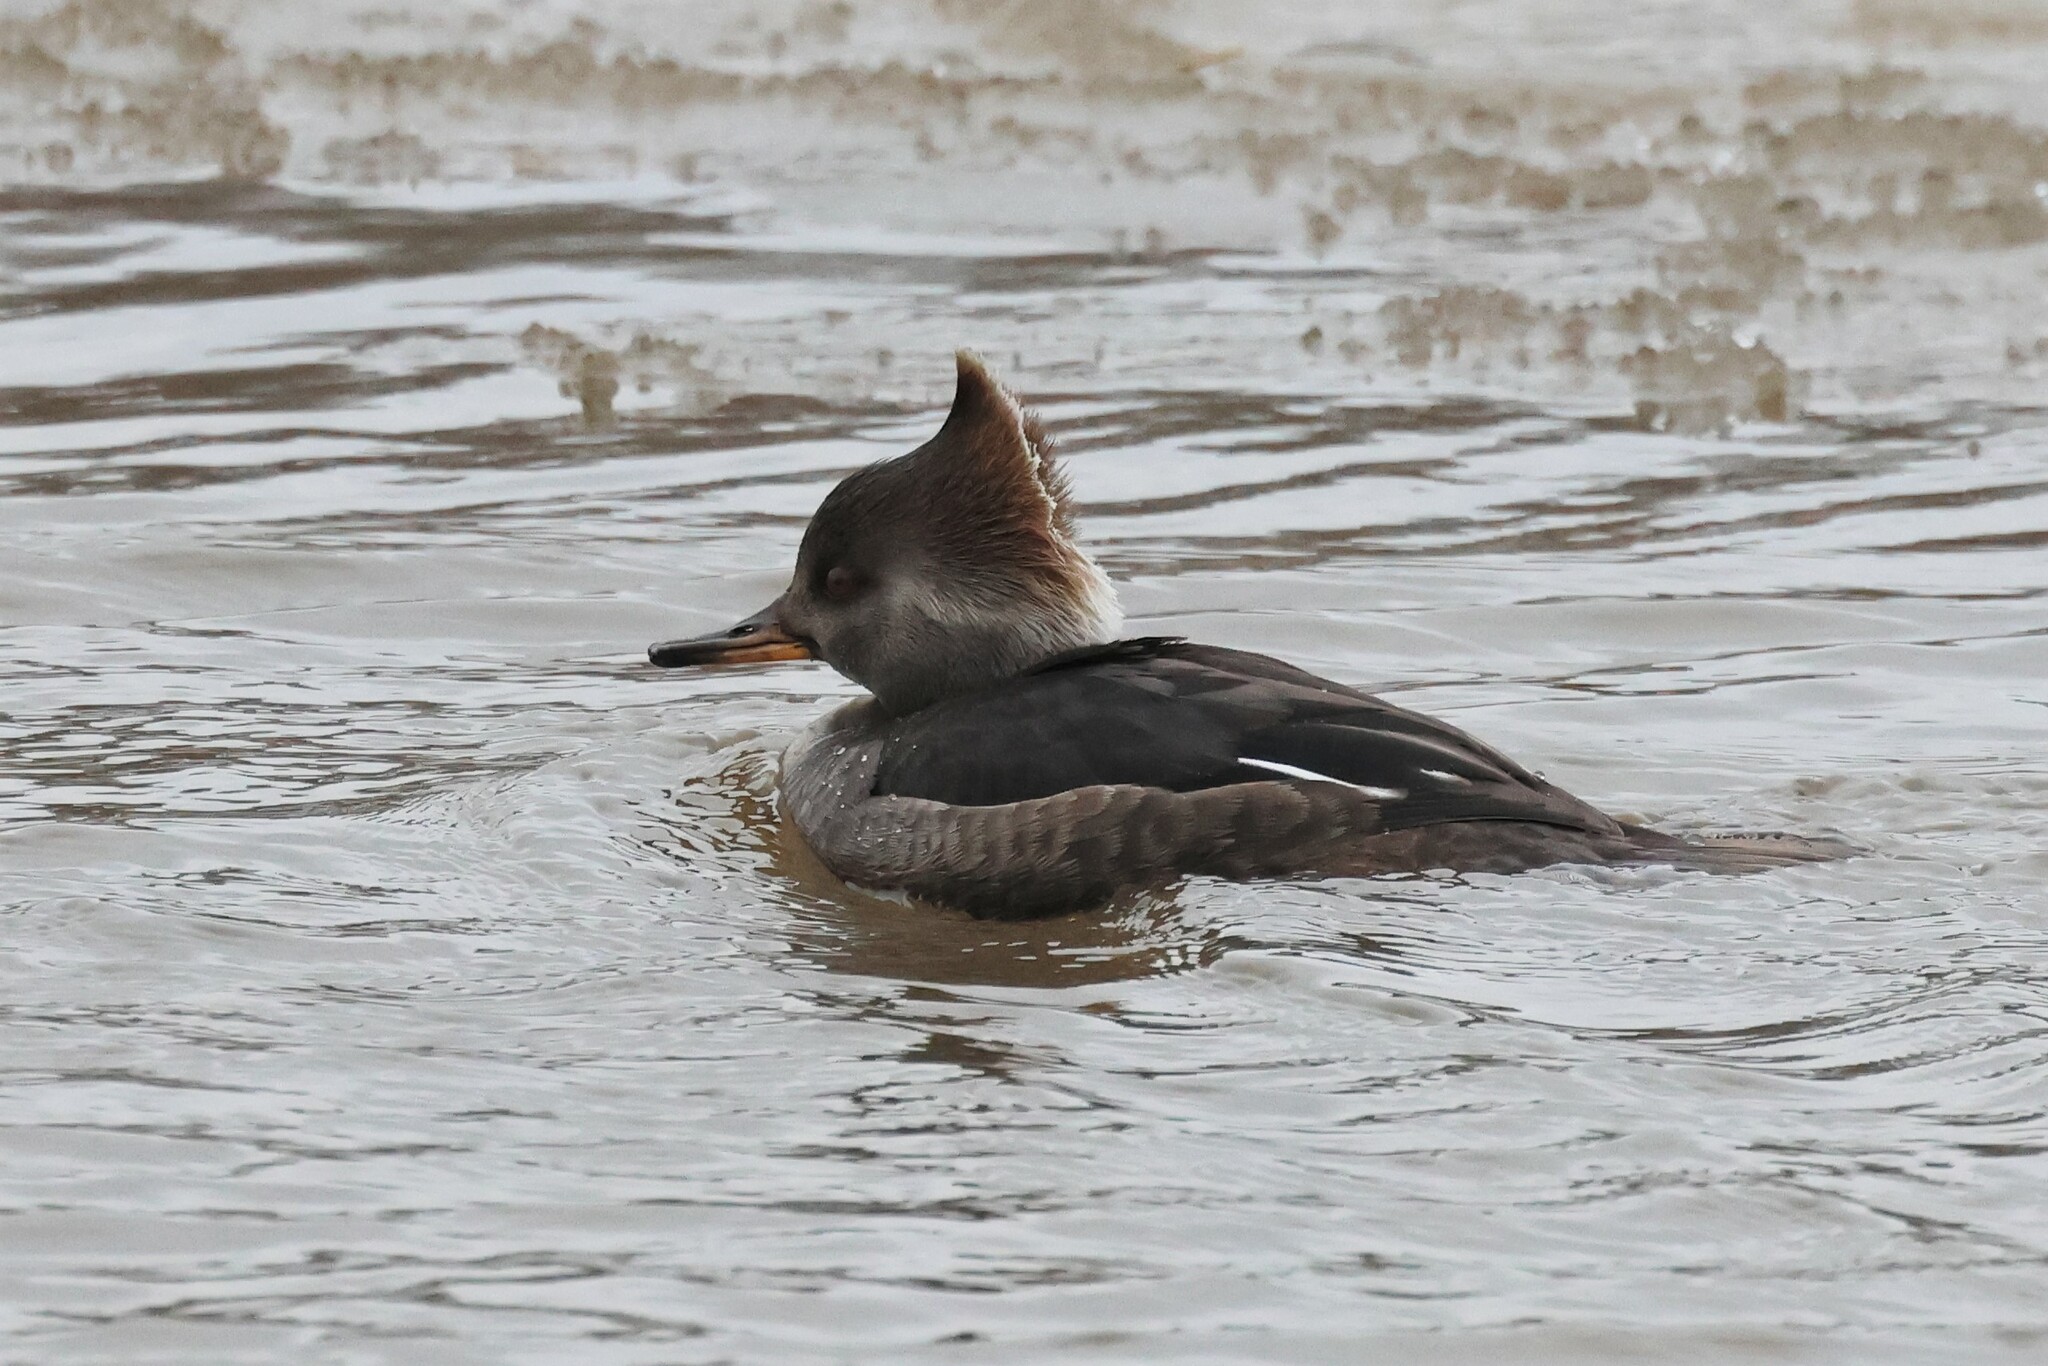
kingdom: Animalia
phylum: Chordata
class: Aves
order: Anseriformes
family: Anatidae
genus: Lophodytes
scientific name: Lophodytes cucullatus
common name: Hooded merganser
